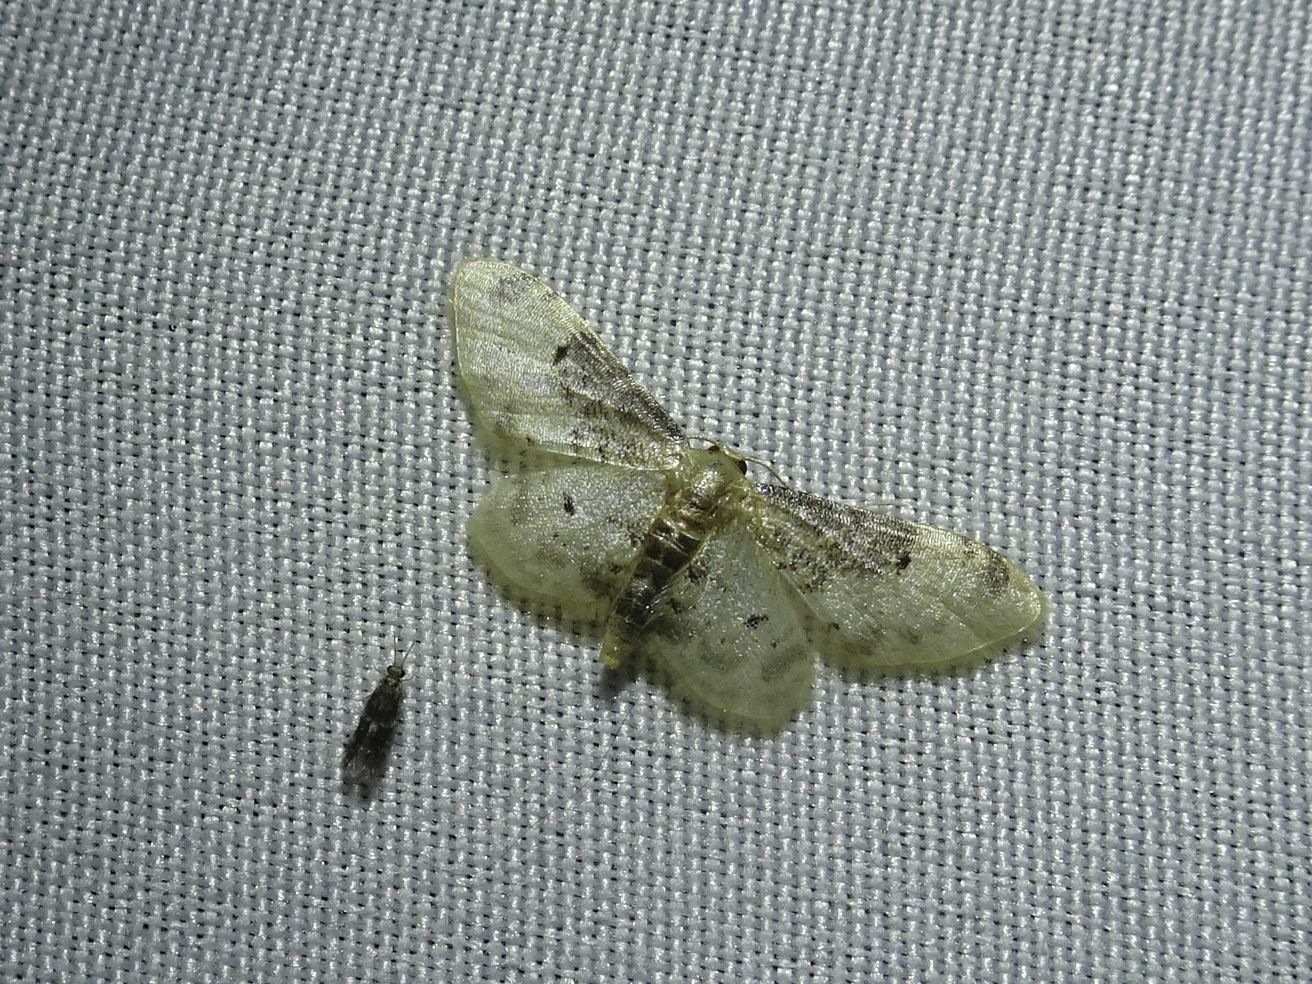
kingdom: Animalia
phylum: Arthropoda
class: Insecta
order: Lepidoptera
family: Geometridae
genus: Idaea
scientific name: Idaea filicata
